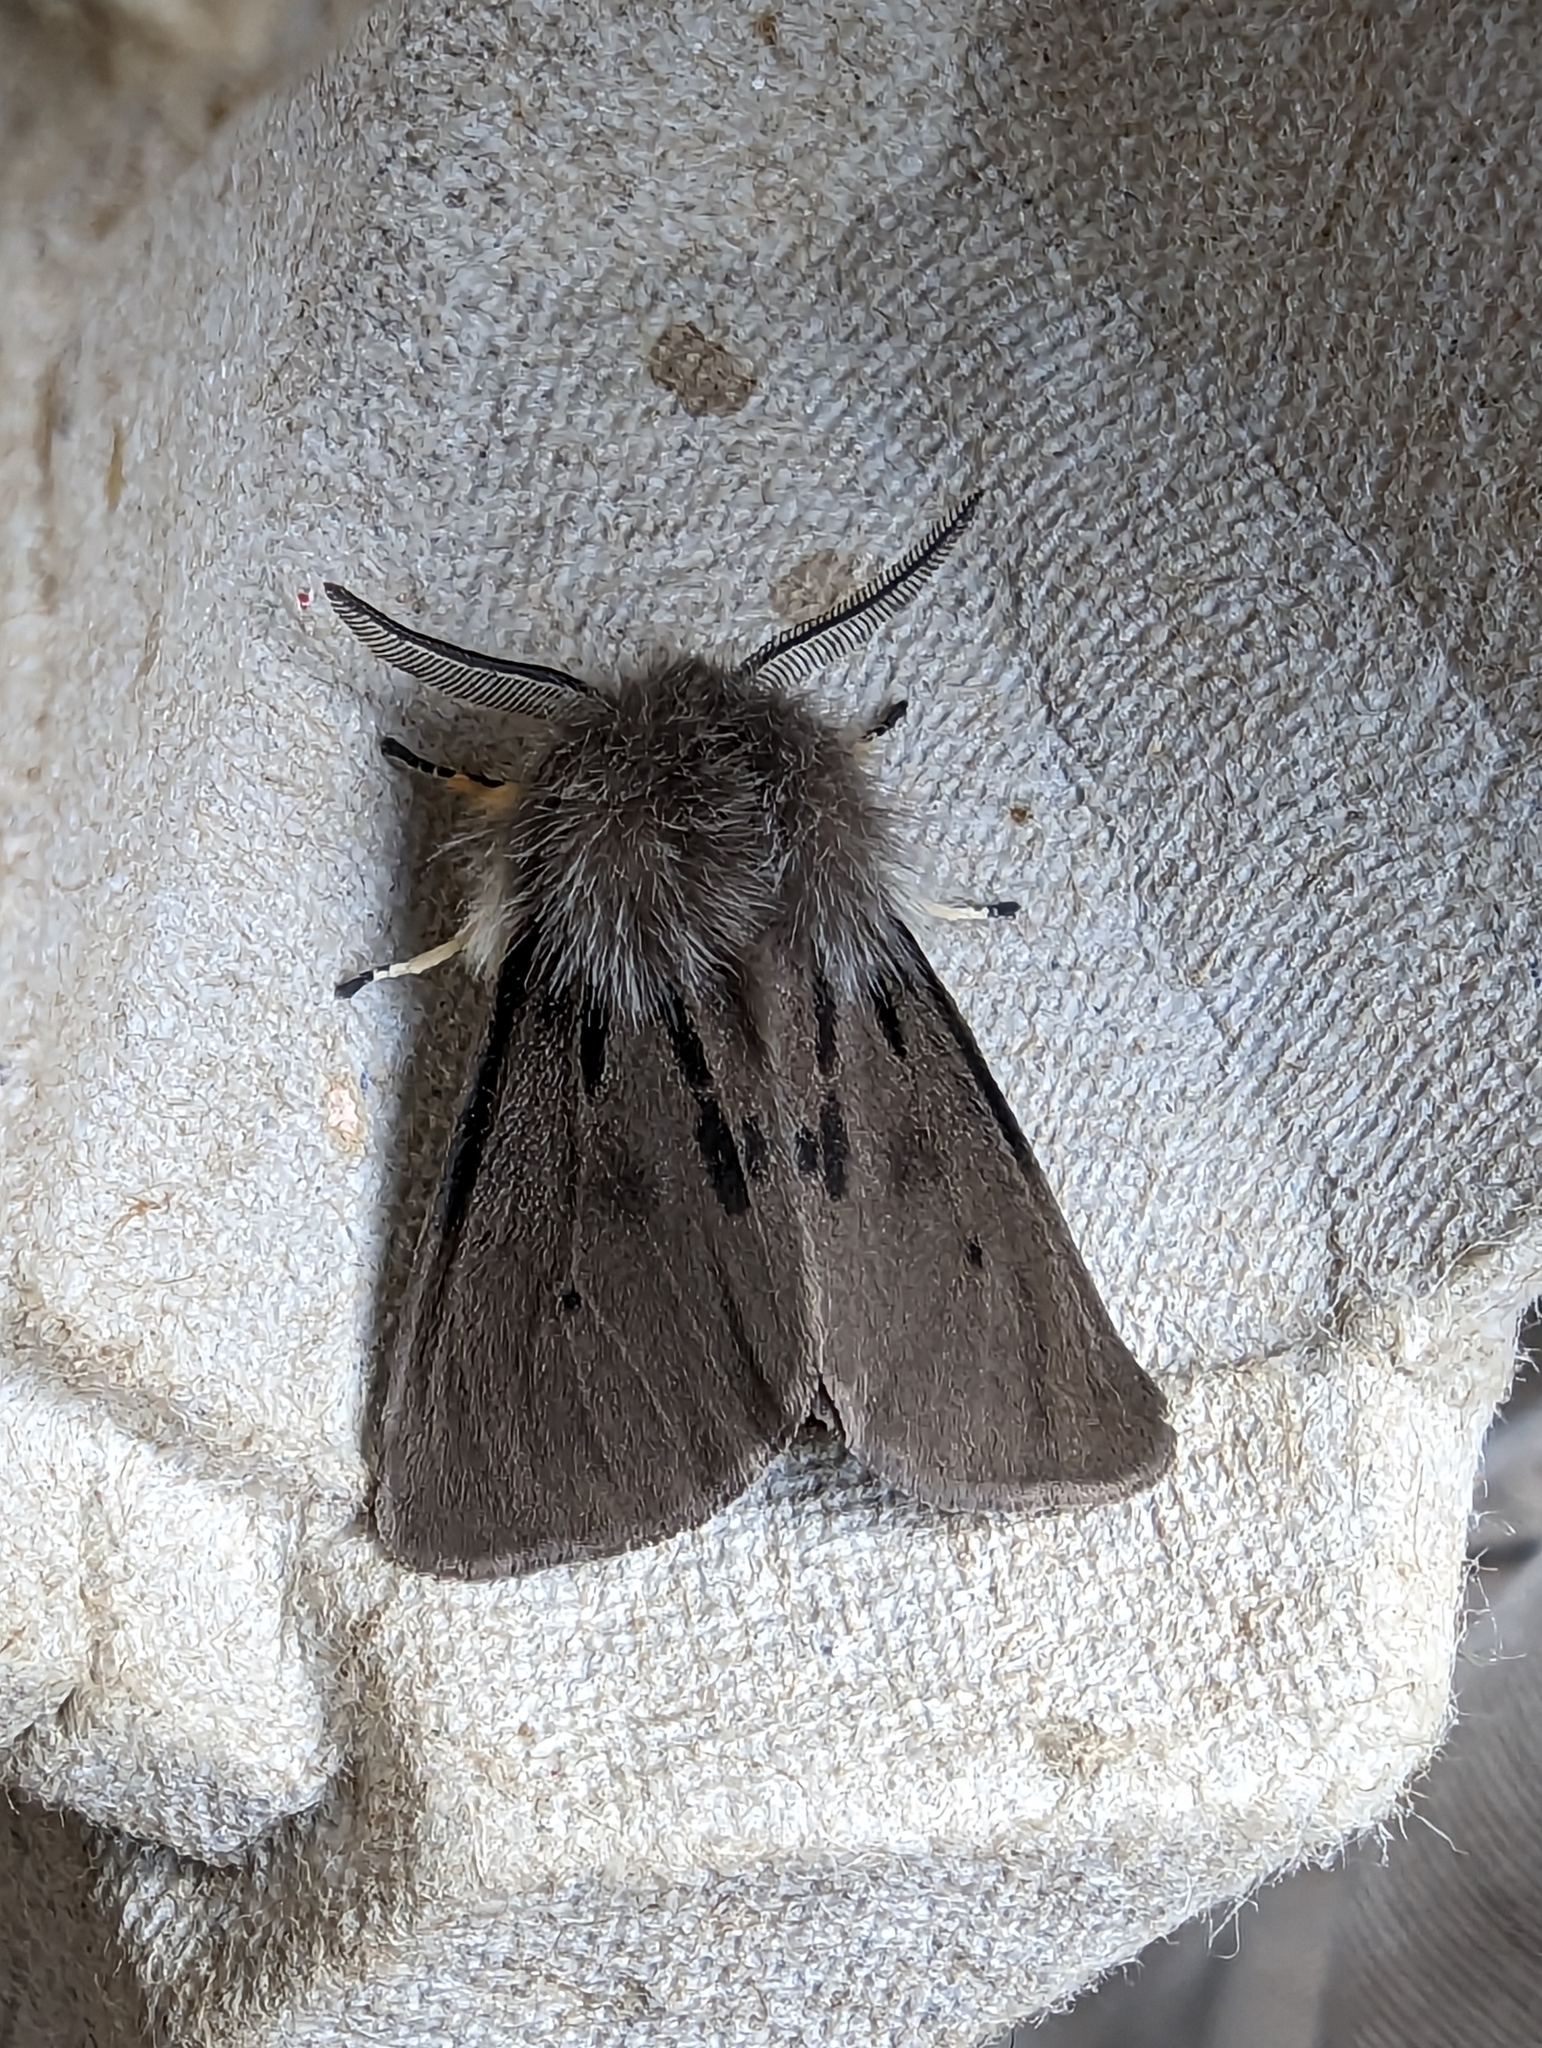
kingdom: Animalia
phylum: Arthropoda
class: Insecta
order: Lepidoptera
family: Erebidae
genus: Diaphora
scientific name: Diaphora mendica
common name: Muslin moth
